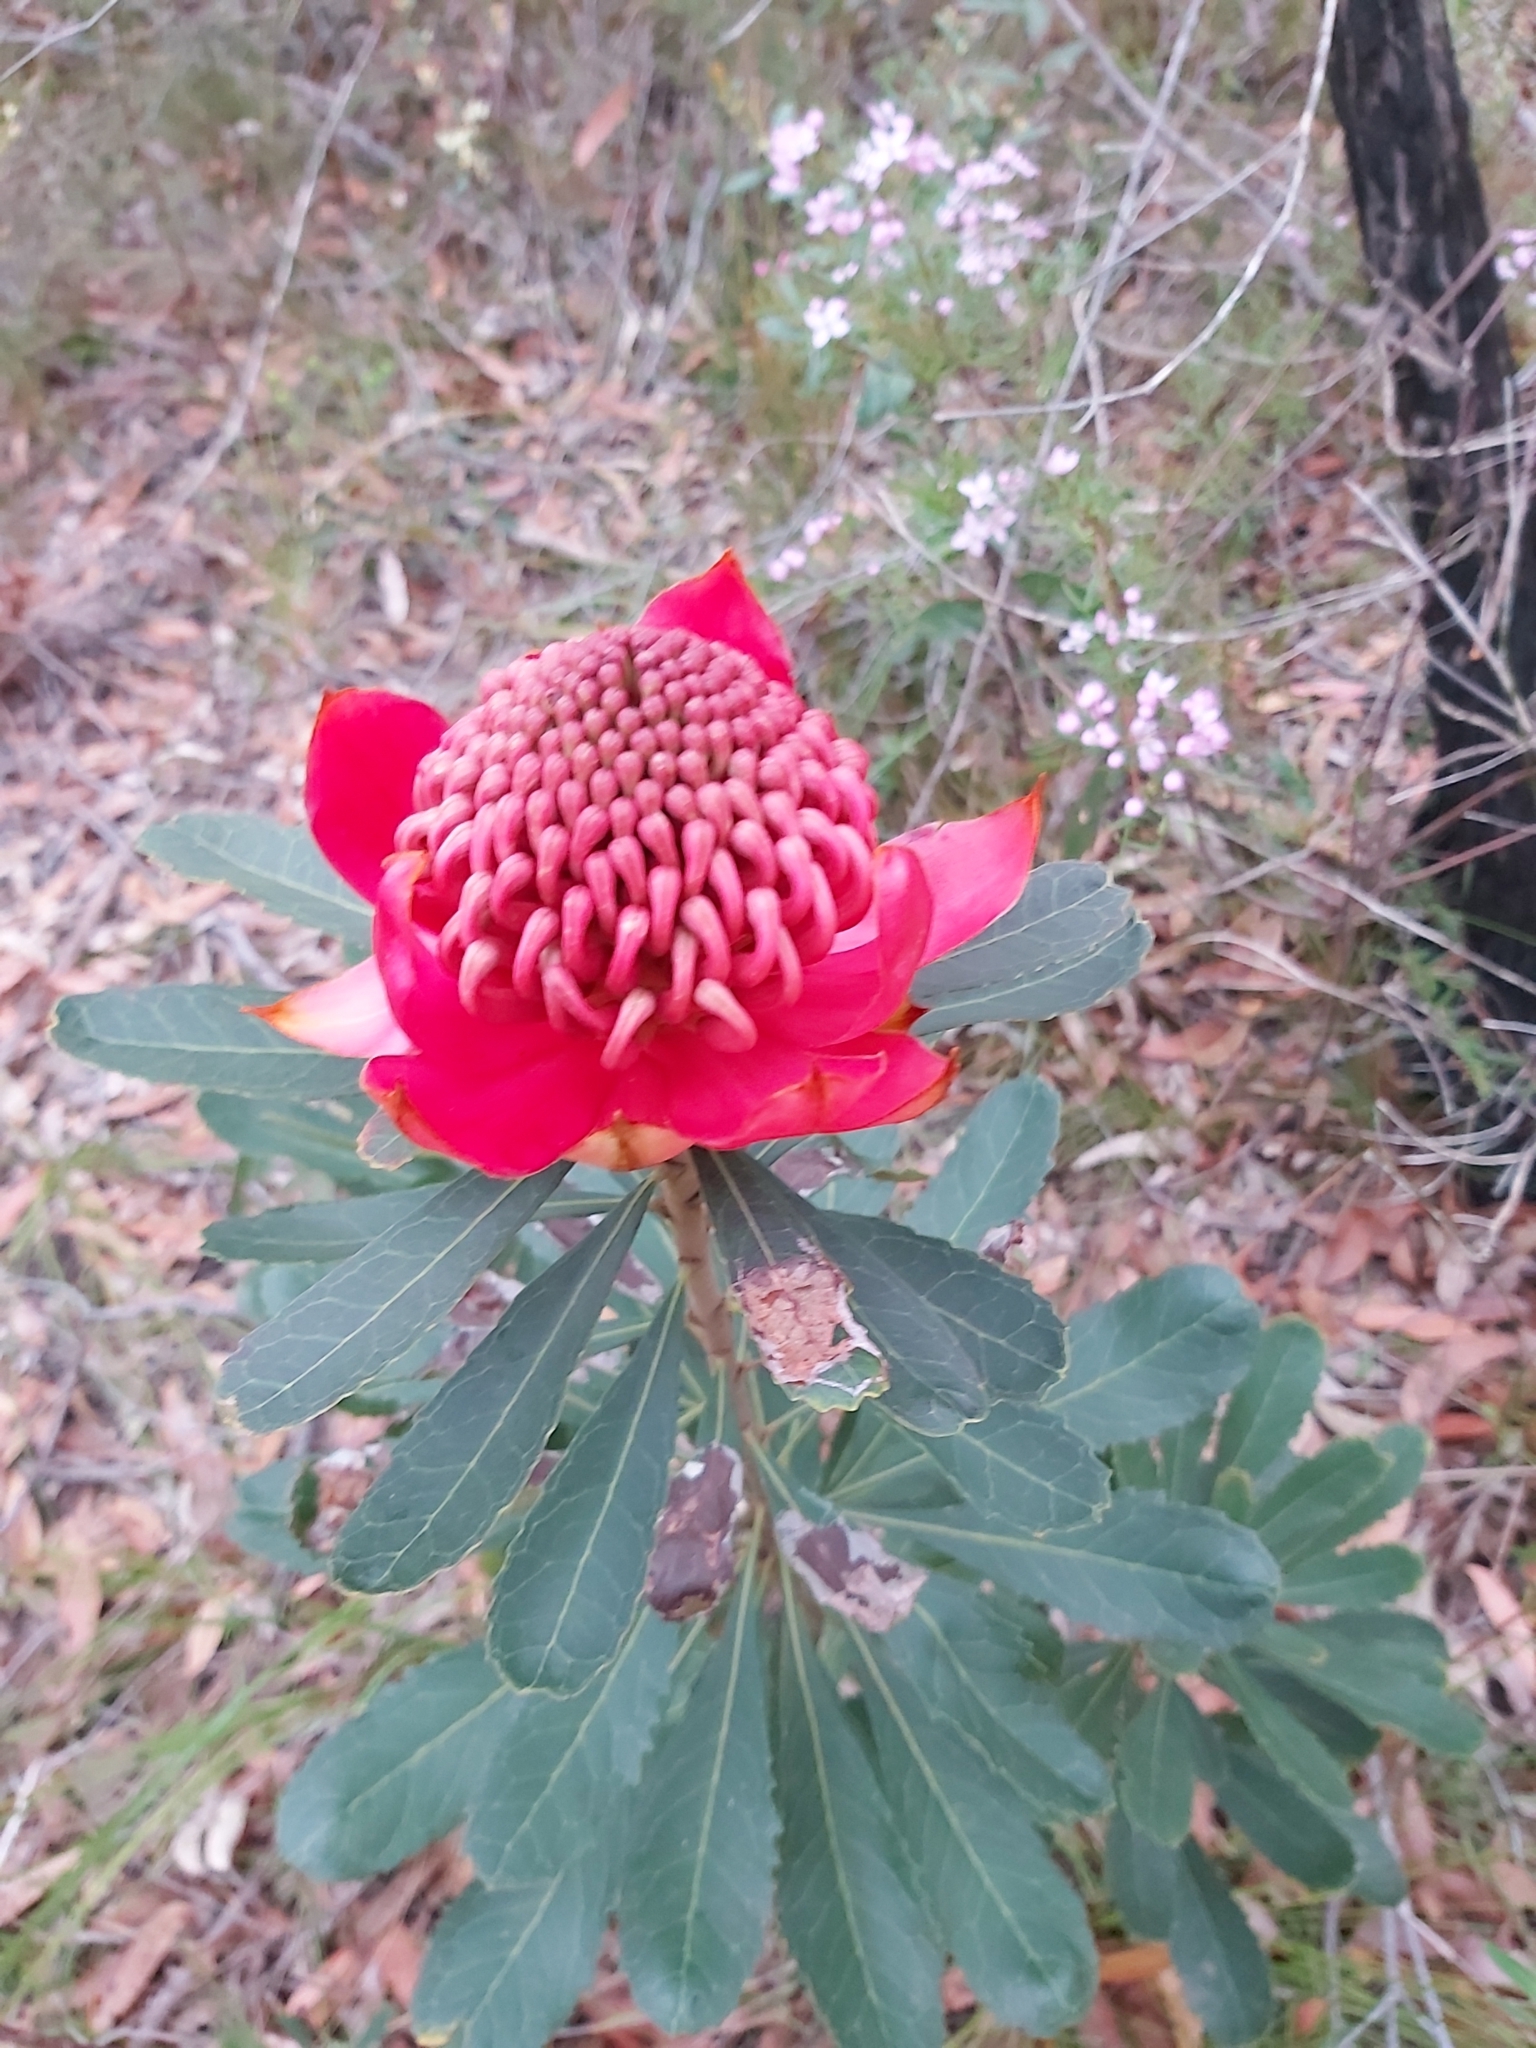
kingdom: Plantae
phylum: Tracheophyta
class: Magnoliopsida
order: Proteales
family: Proteaceae
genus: Telopea
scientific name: Telopea speciosissima
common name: New south wales waratah
